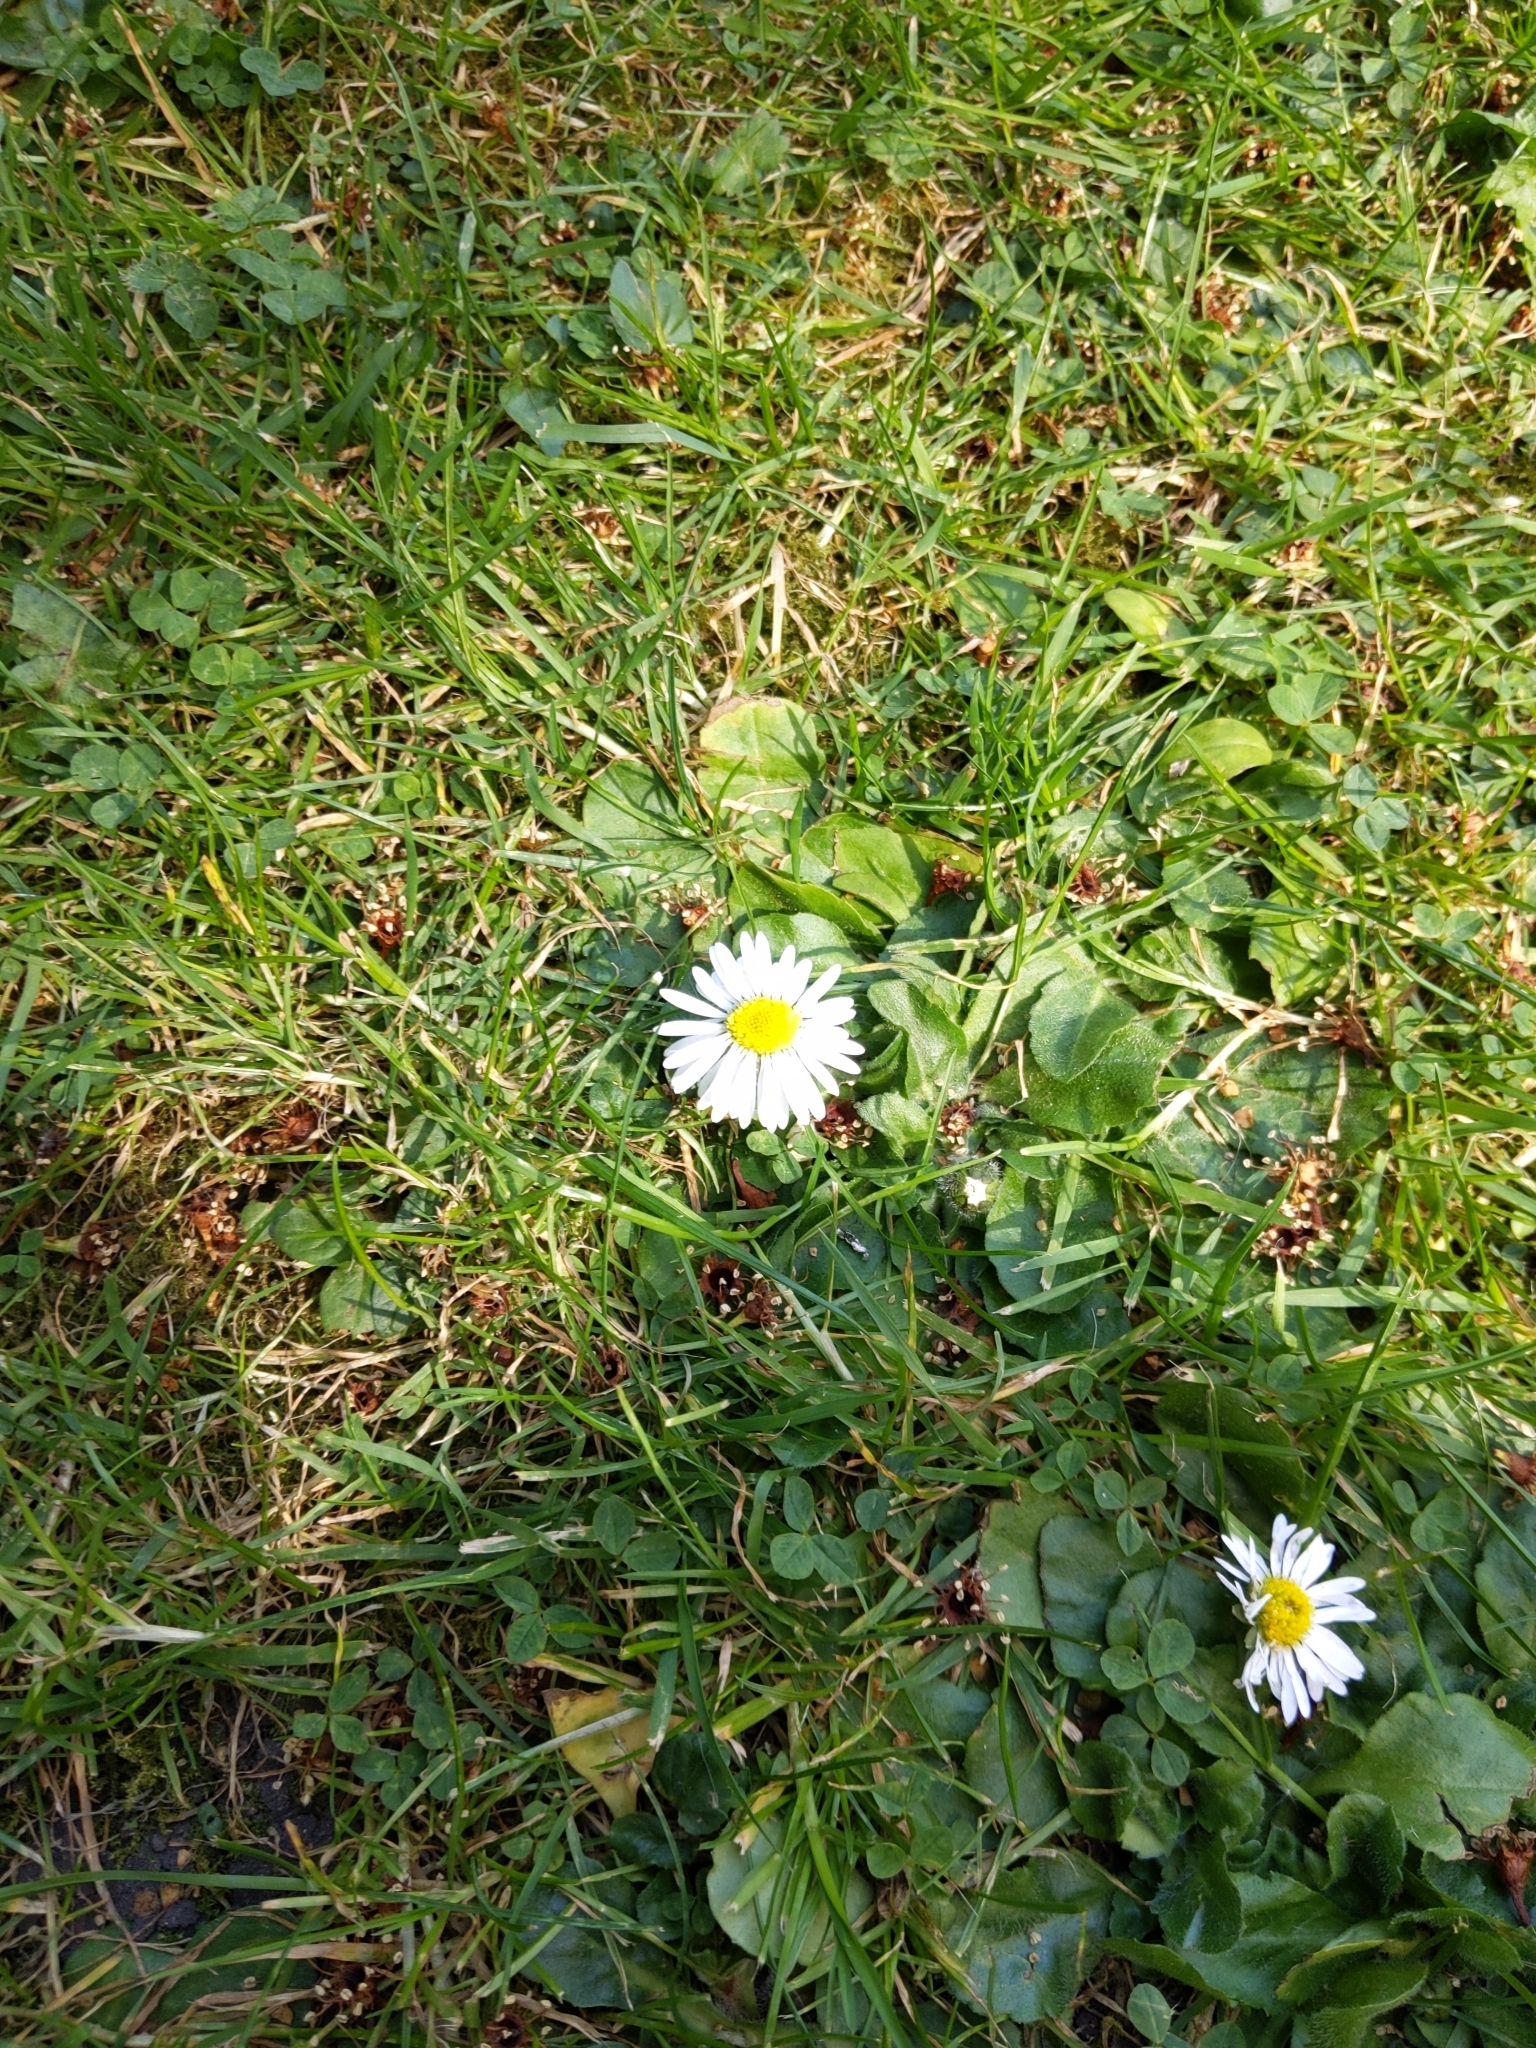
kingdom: Plantae
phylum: Tracheophyta
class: Magnoliopsida
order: Asterales
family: Asteraceae
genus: Bellis
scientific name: Bellis perennis
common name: Lawndaisy
